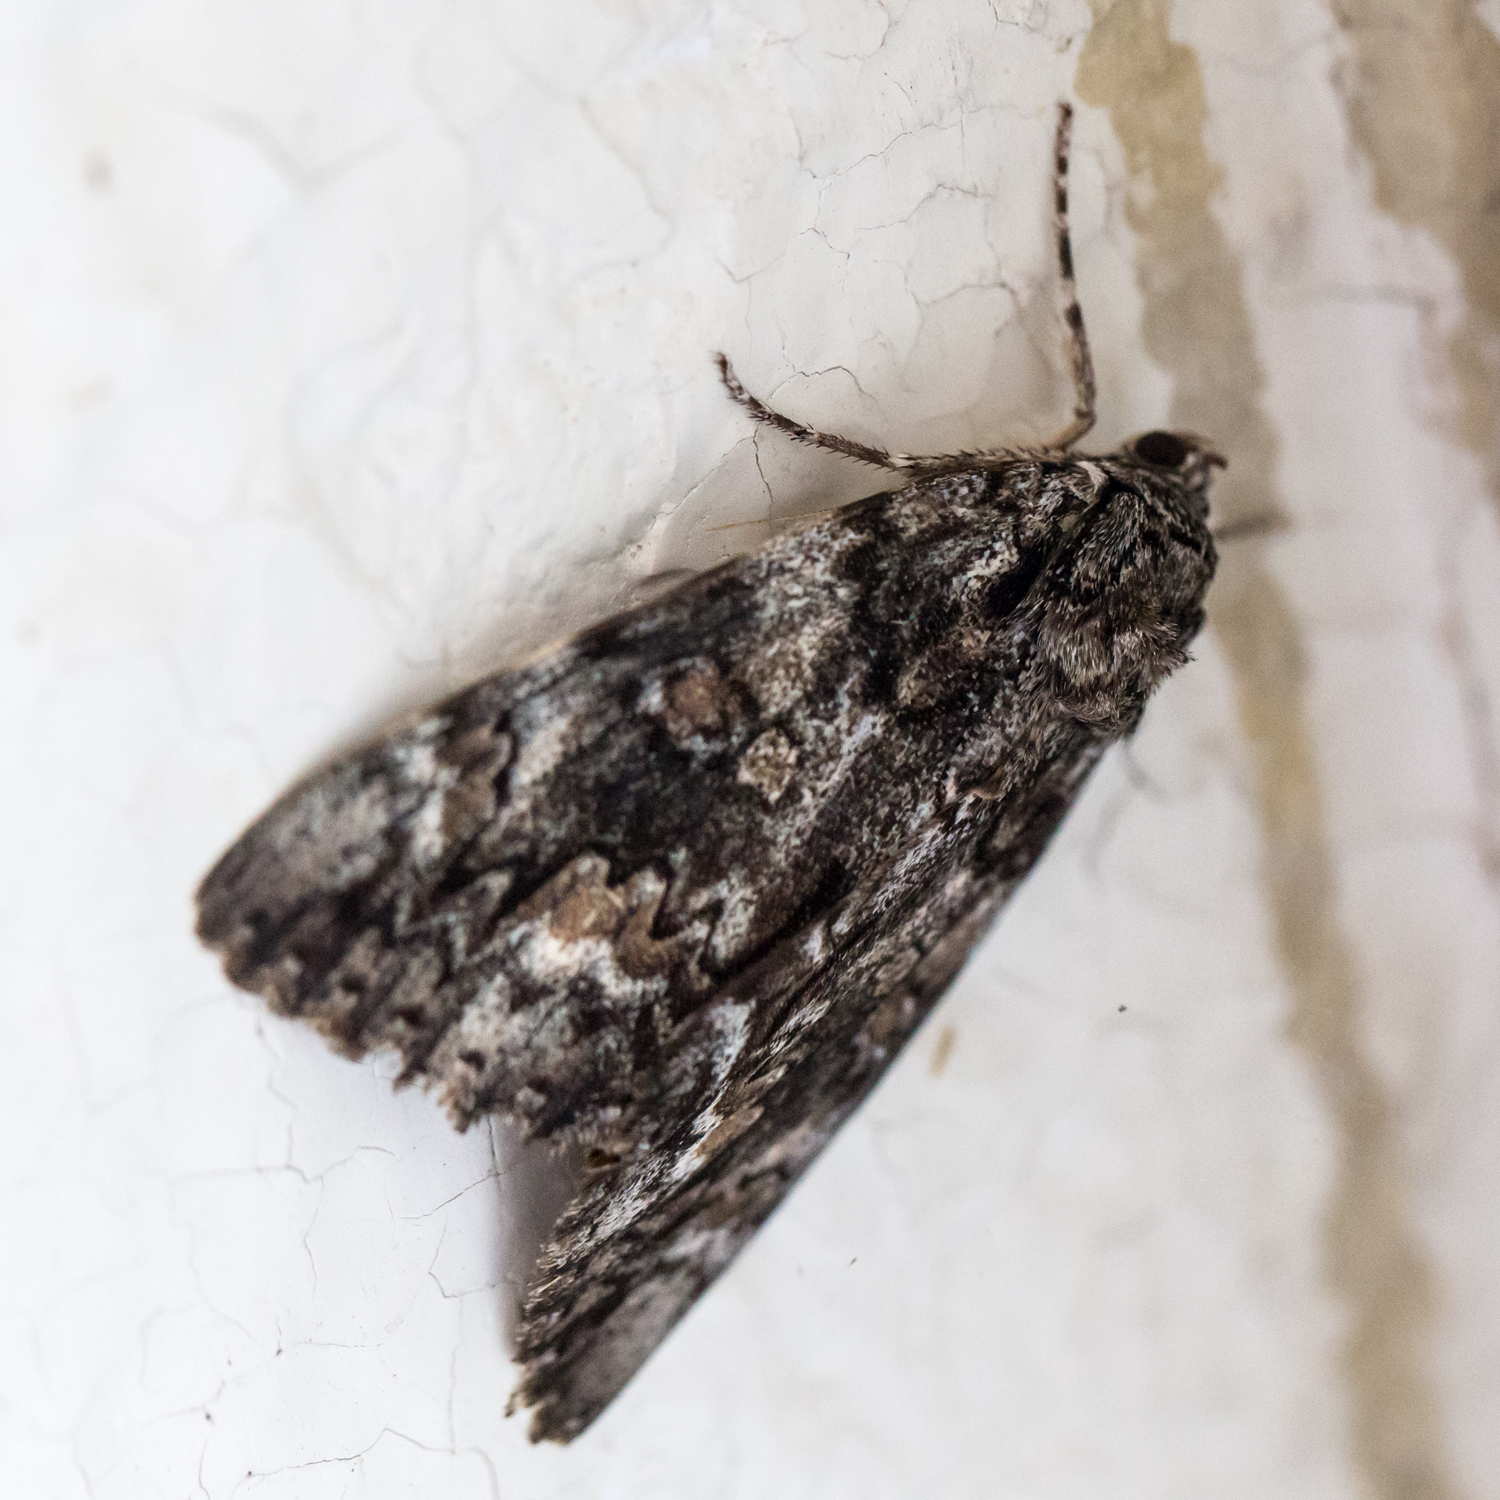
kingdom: Animalia
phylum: Arthropoda
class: Insecta
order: Lepidoptera
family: Erebidae
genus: Catocala
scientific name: Catocala palaeogama
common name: Oldwife underwing
